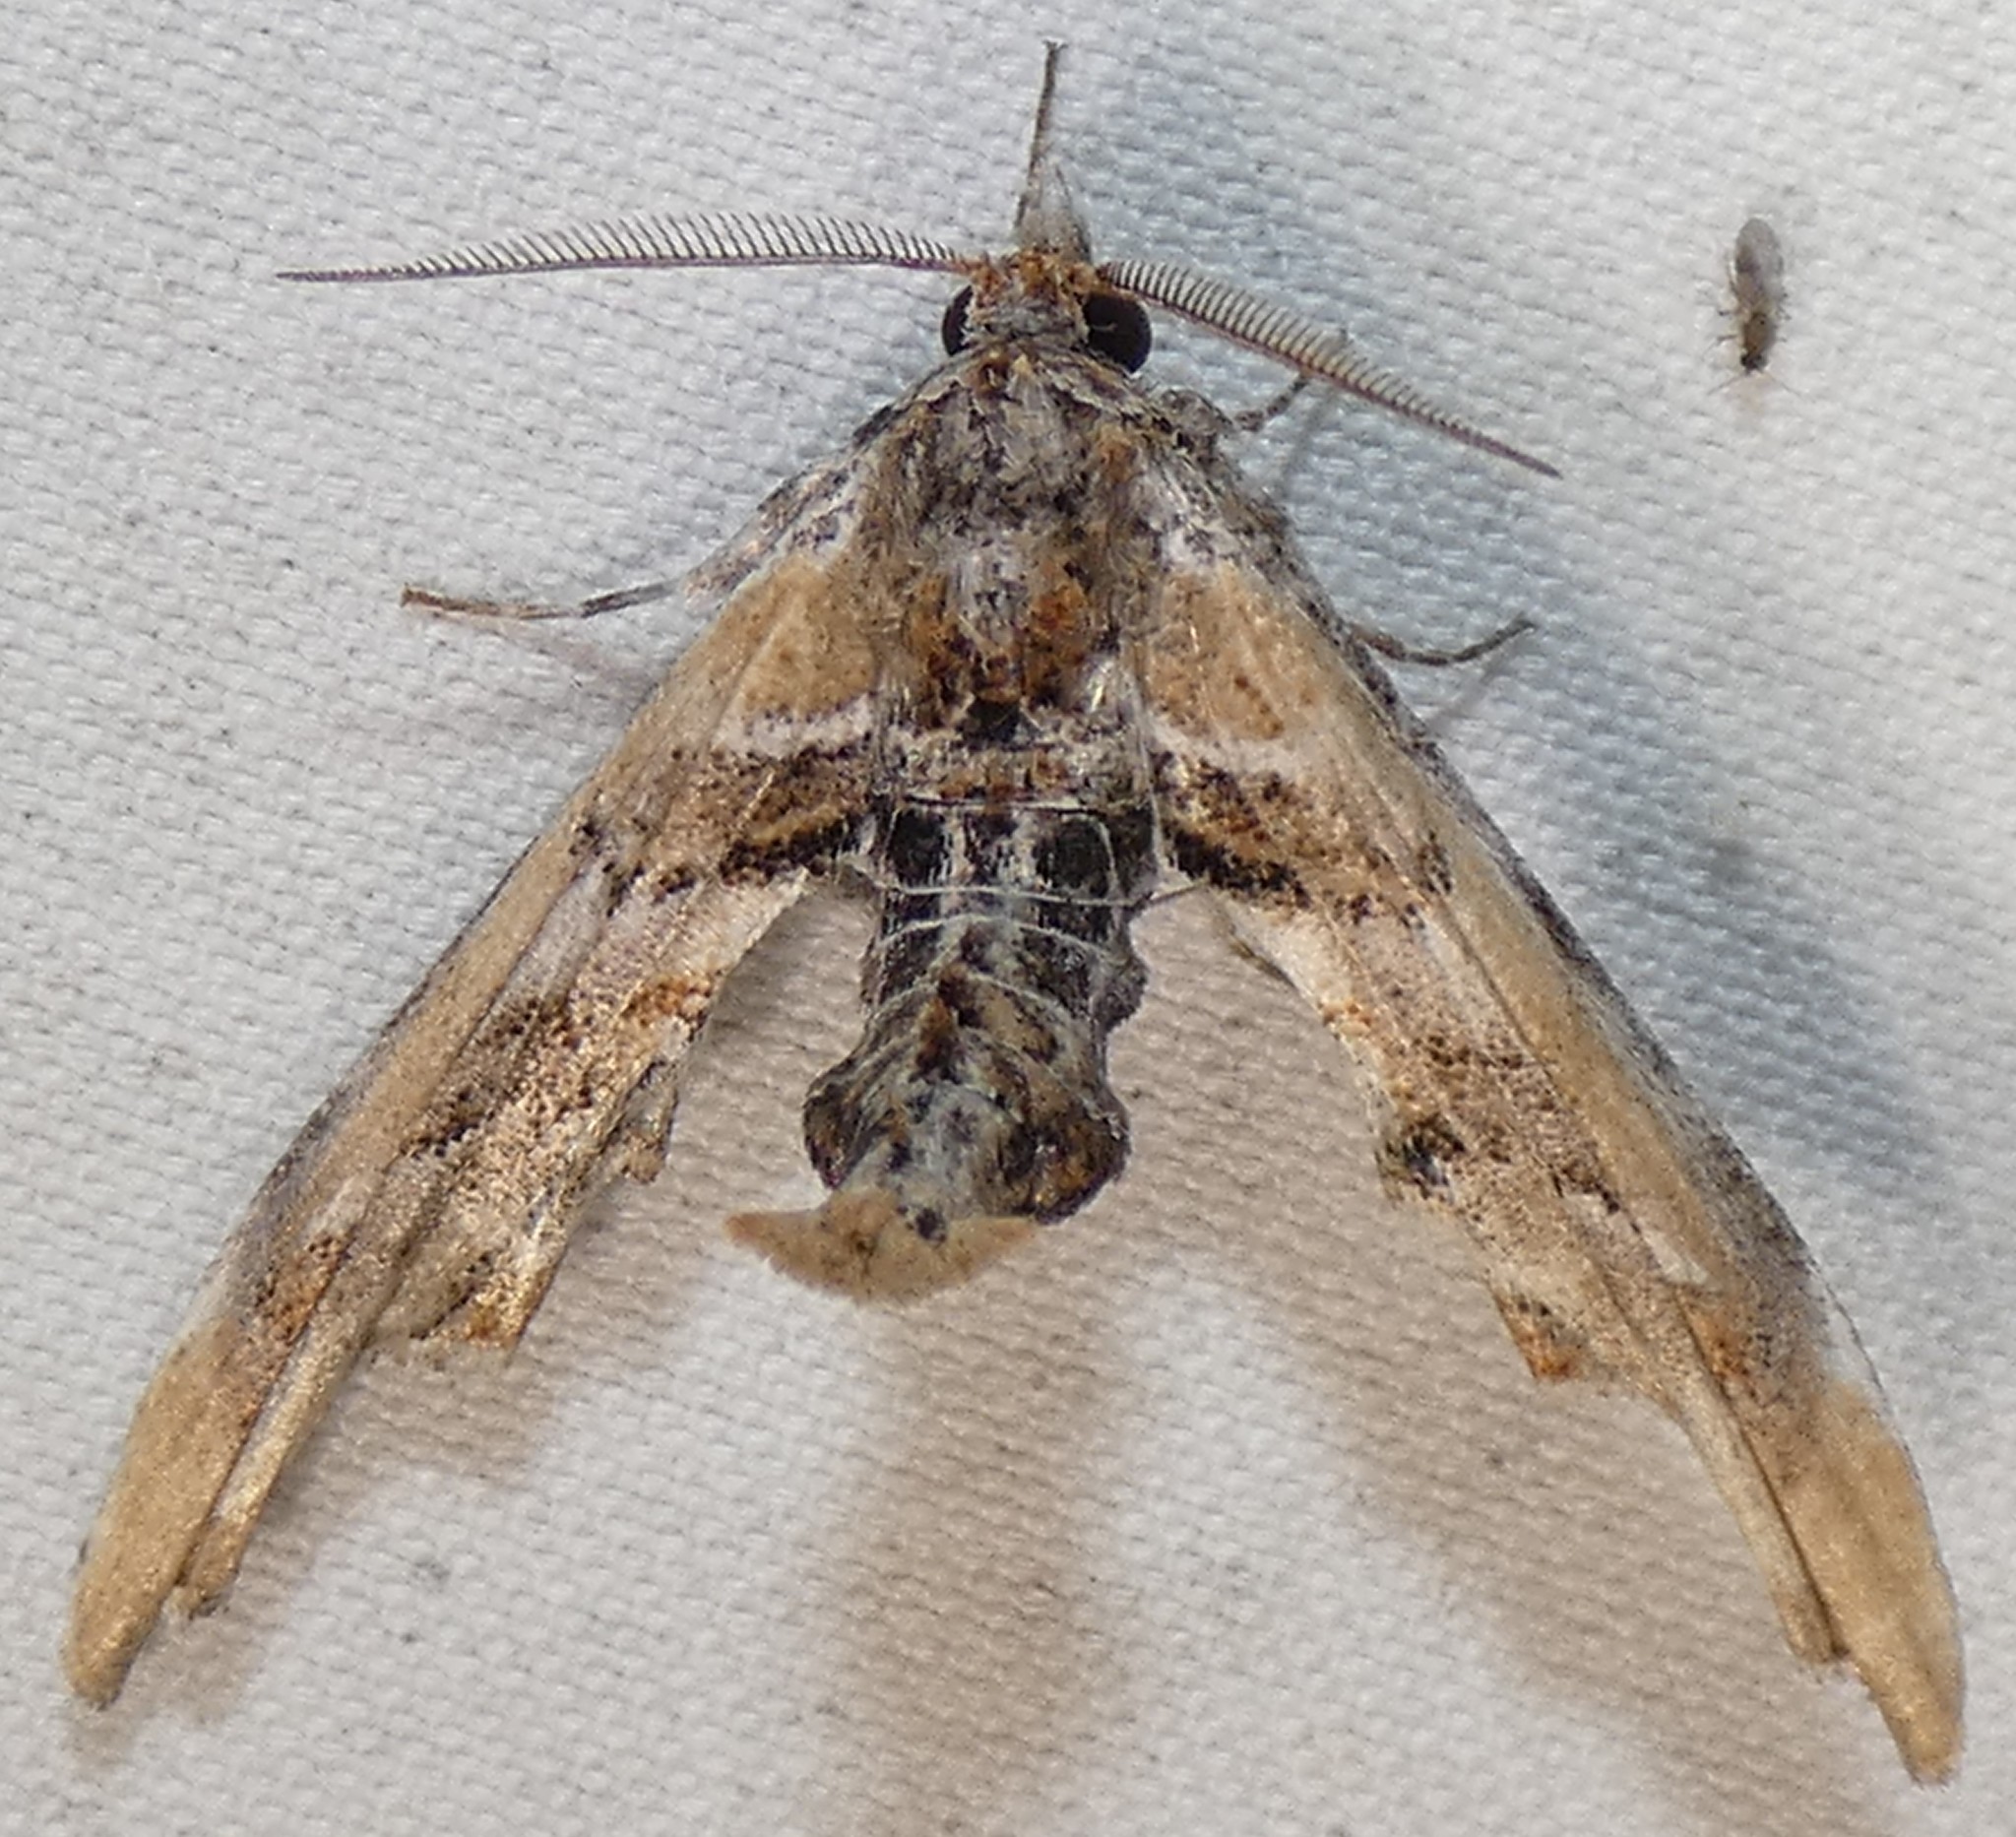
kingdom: Animalia
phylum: Arthropoda
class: Insecta
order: Lepidoptera
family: Euteliidae
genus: Marathyssa
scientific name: Marathyssa basalis
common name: Light marathyssa moth
